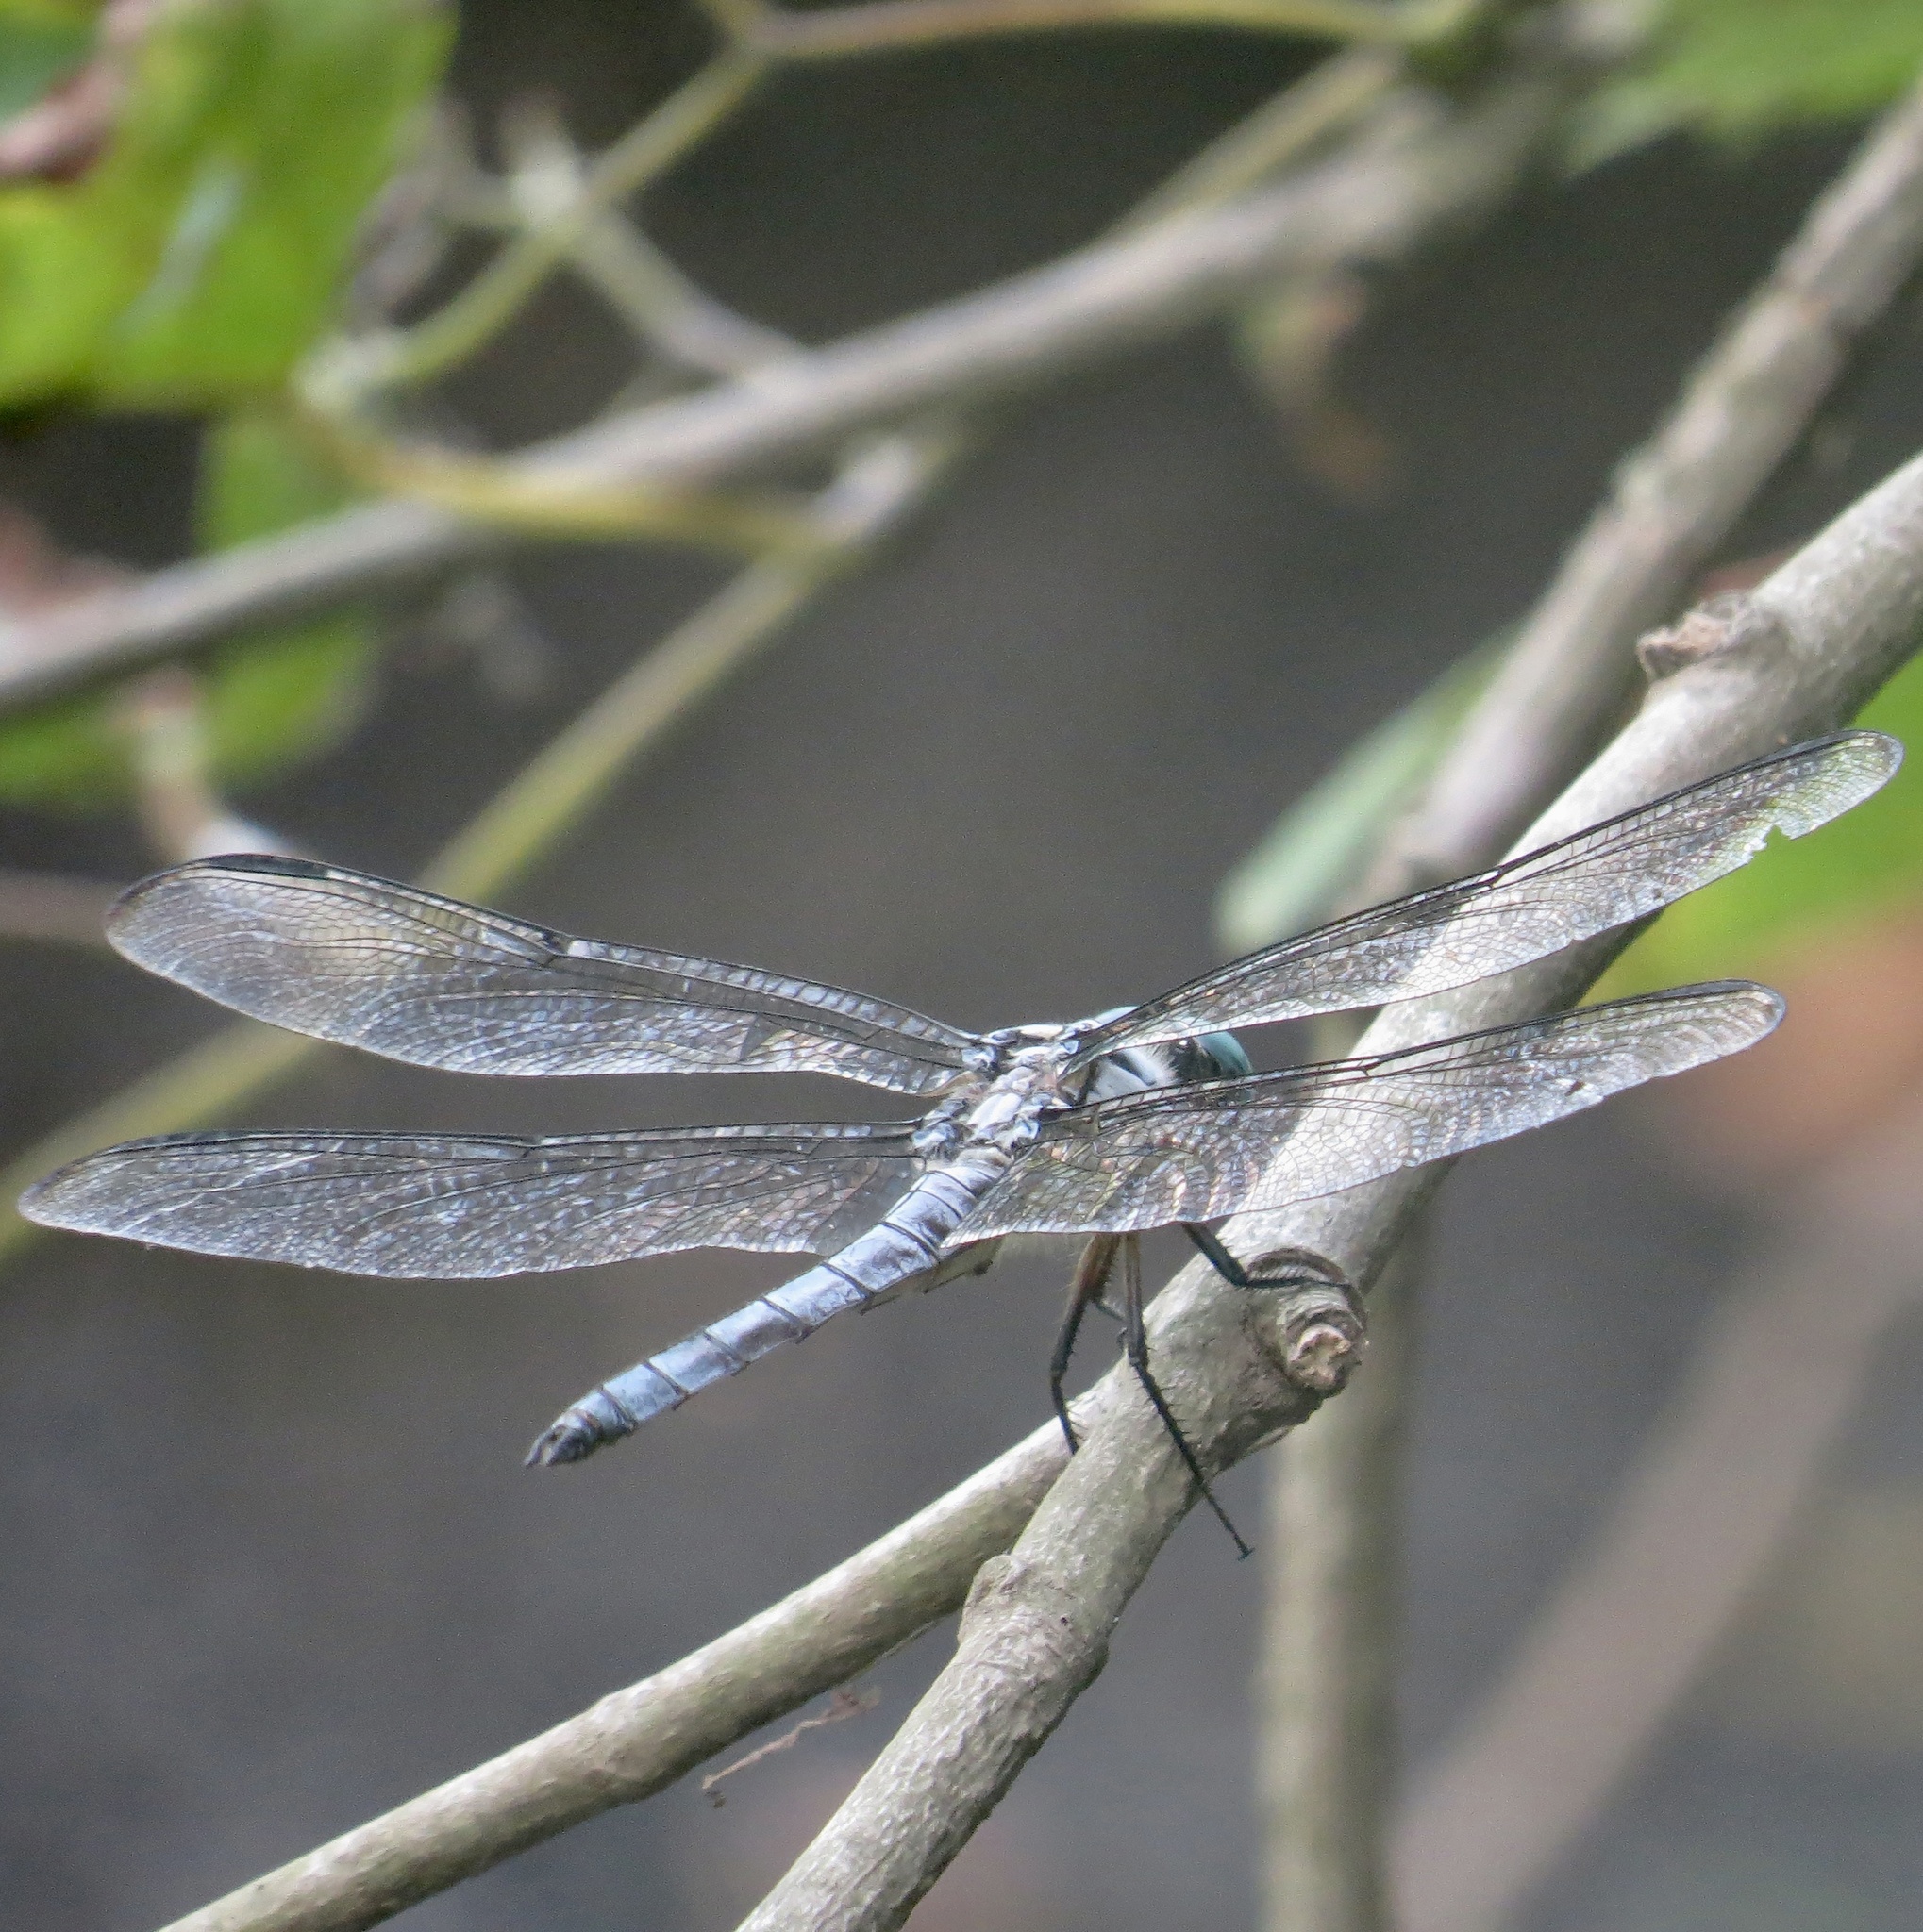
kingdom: Animalia
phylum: Arthropoda
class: Insecta
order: Odonata
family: Libellulidae
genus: Libellula
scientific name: Libellula vibrans
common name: Great blue skimmer
